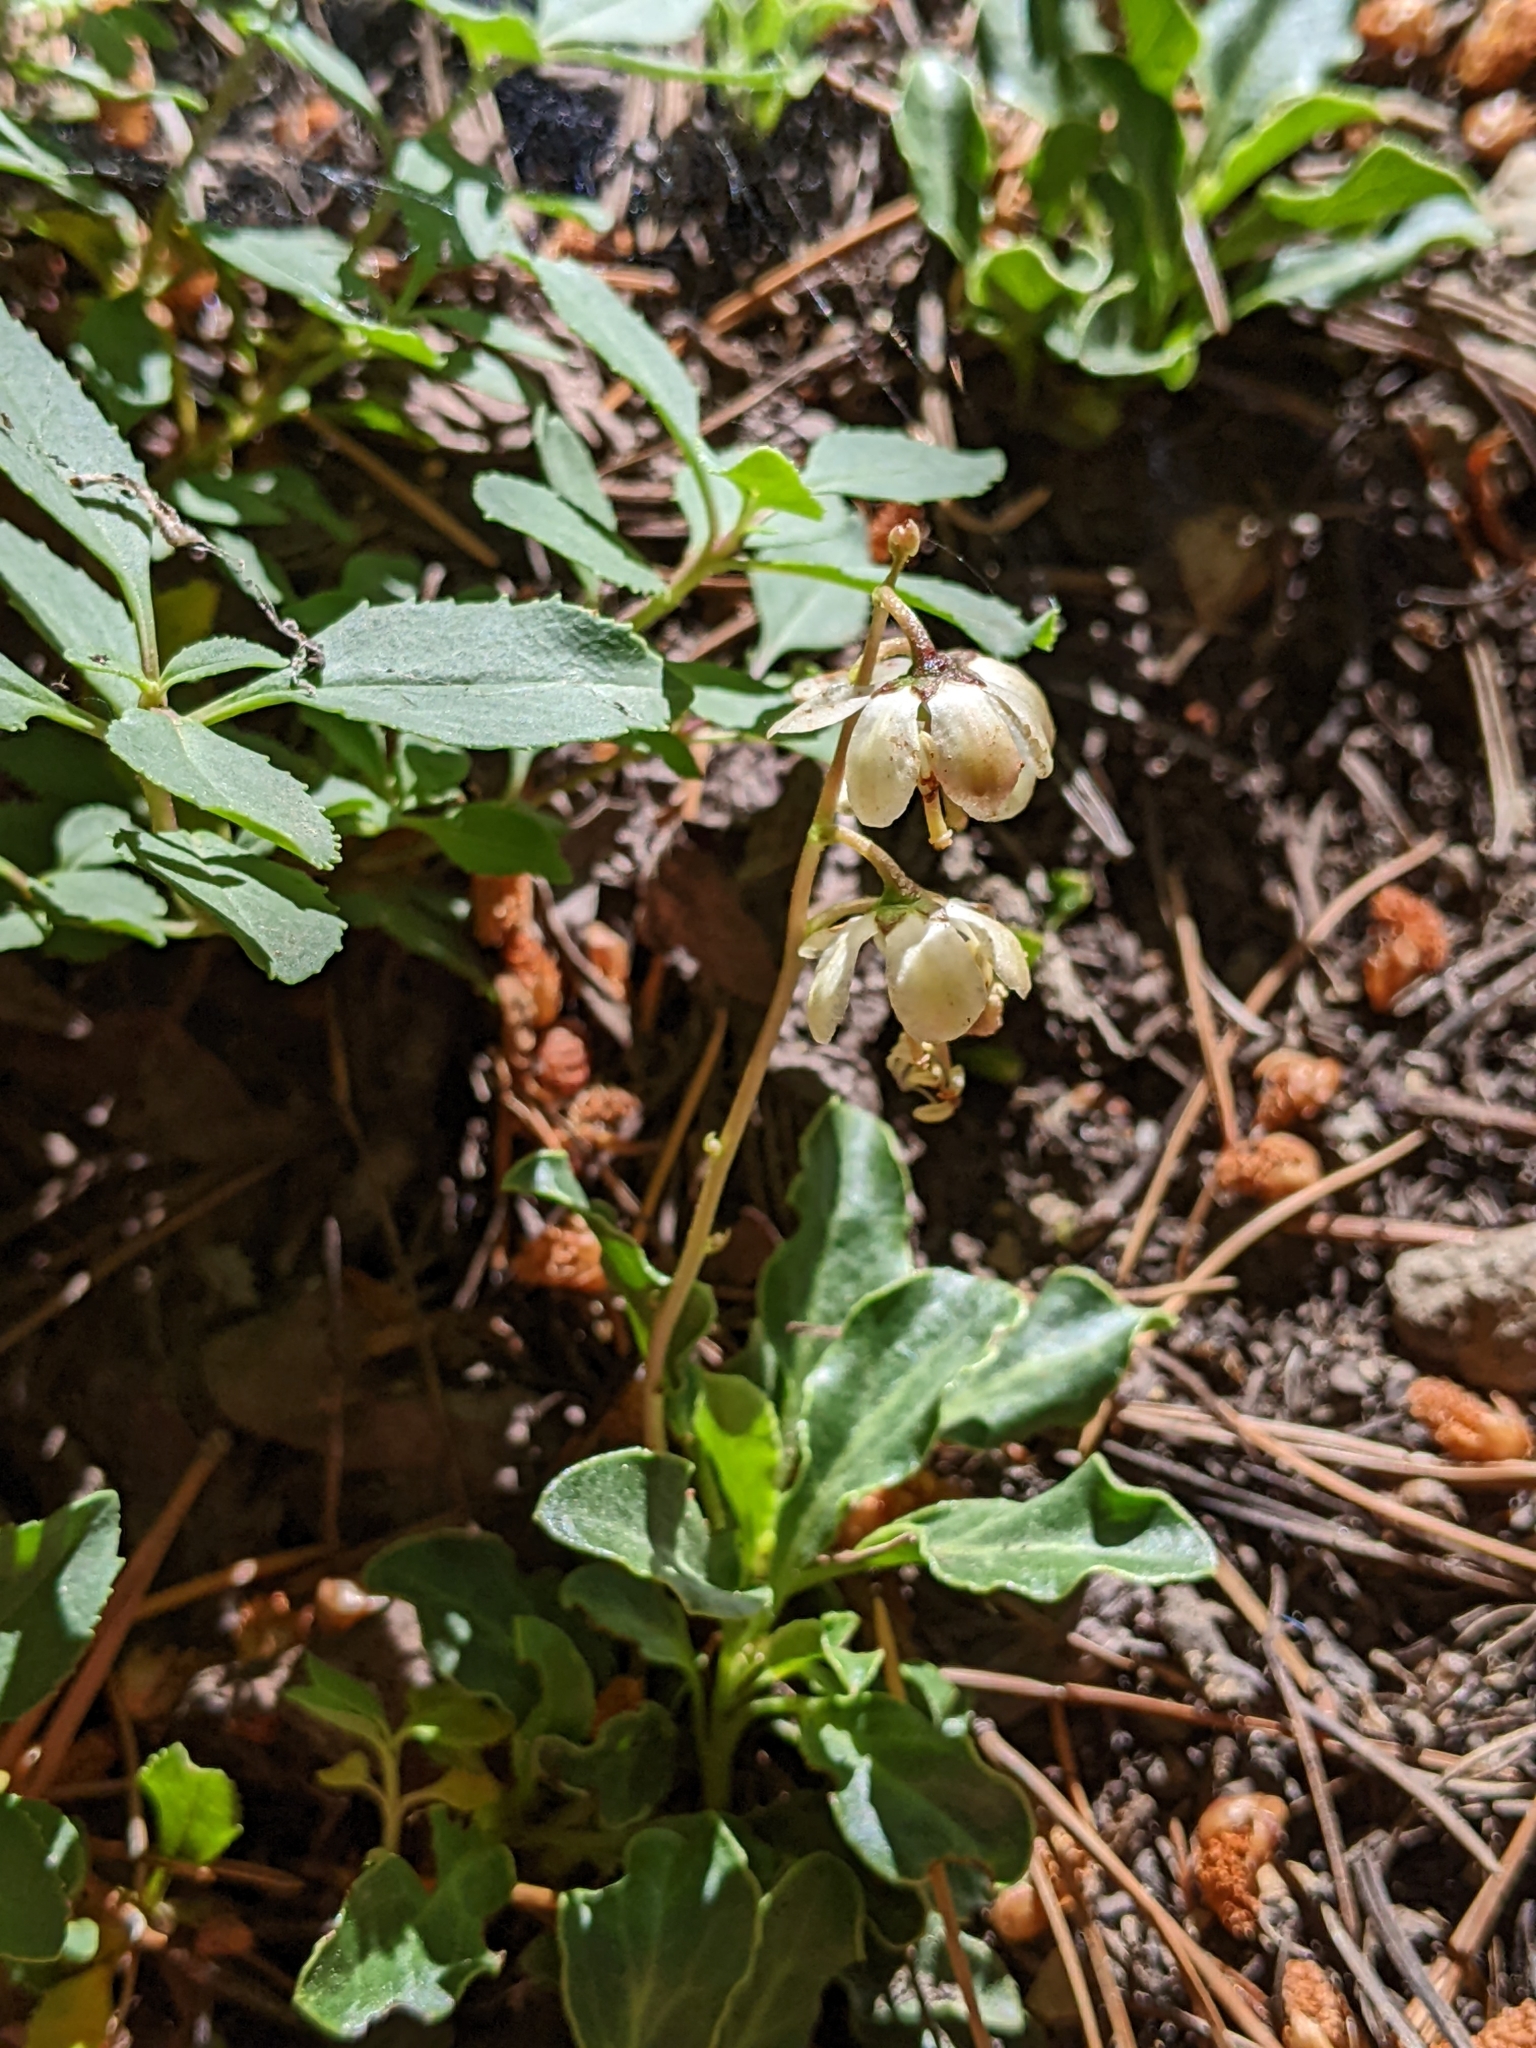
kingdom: Plantae
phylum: Tracheophyta
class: Magnoliopsida
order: Ericales
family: Ericaceae
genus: Pyrola
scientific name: Pyrola dentata
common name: Tooth-leaved wintergreen
